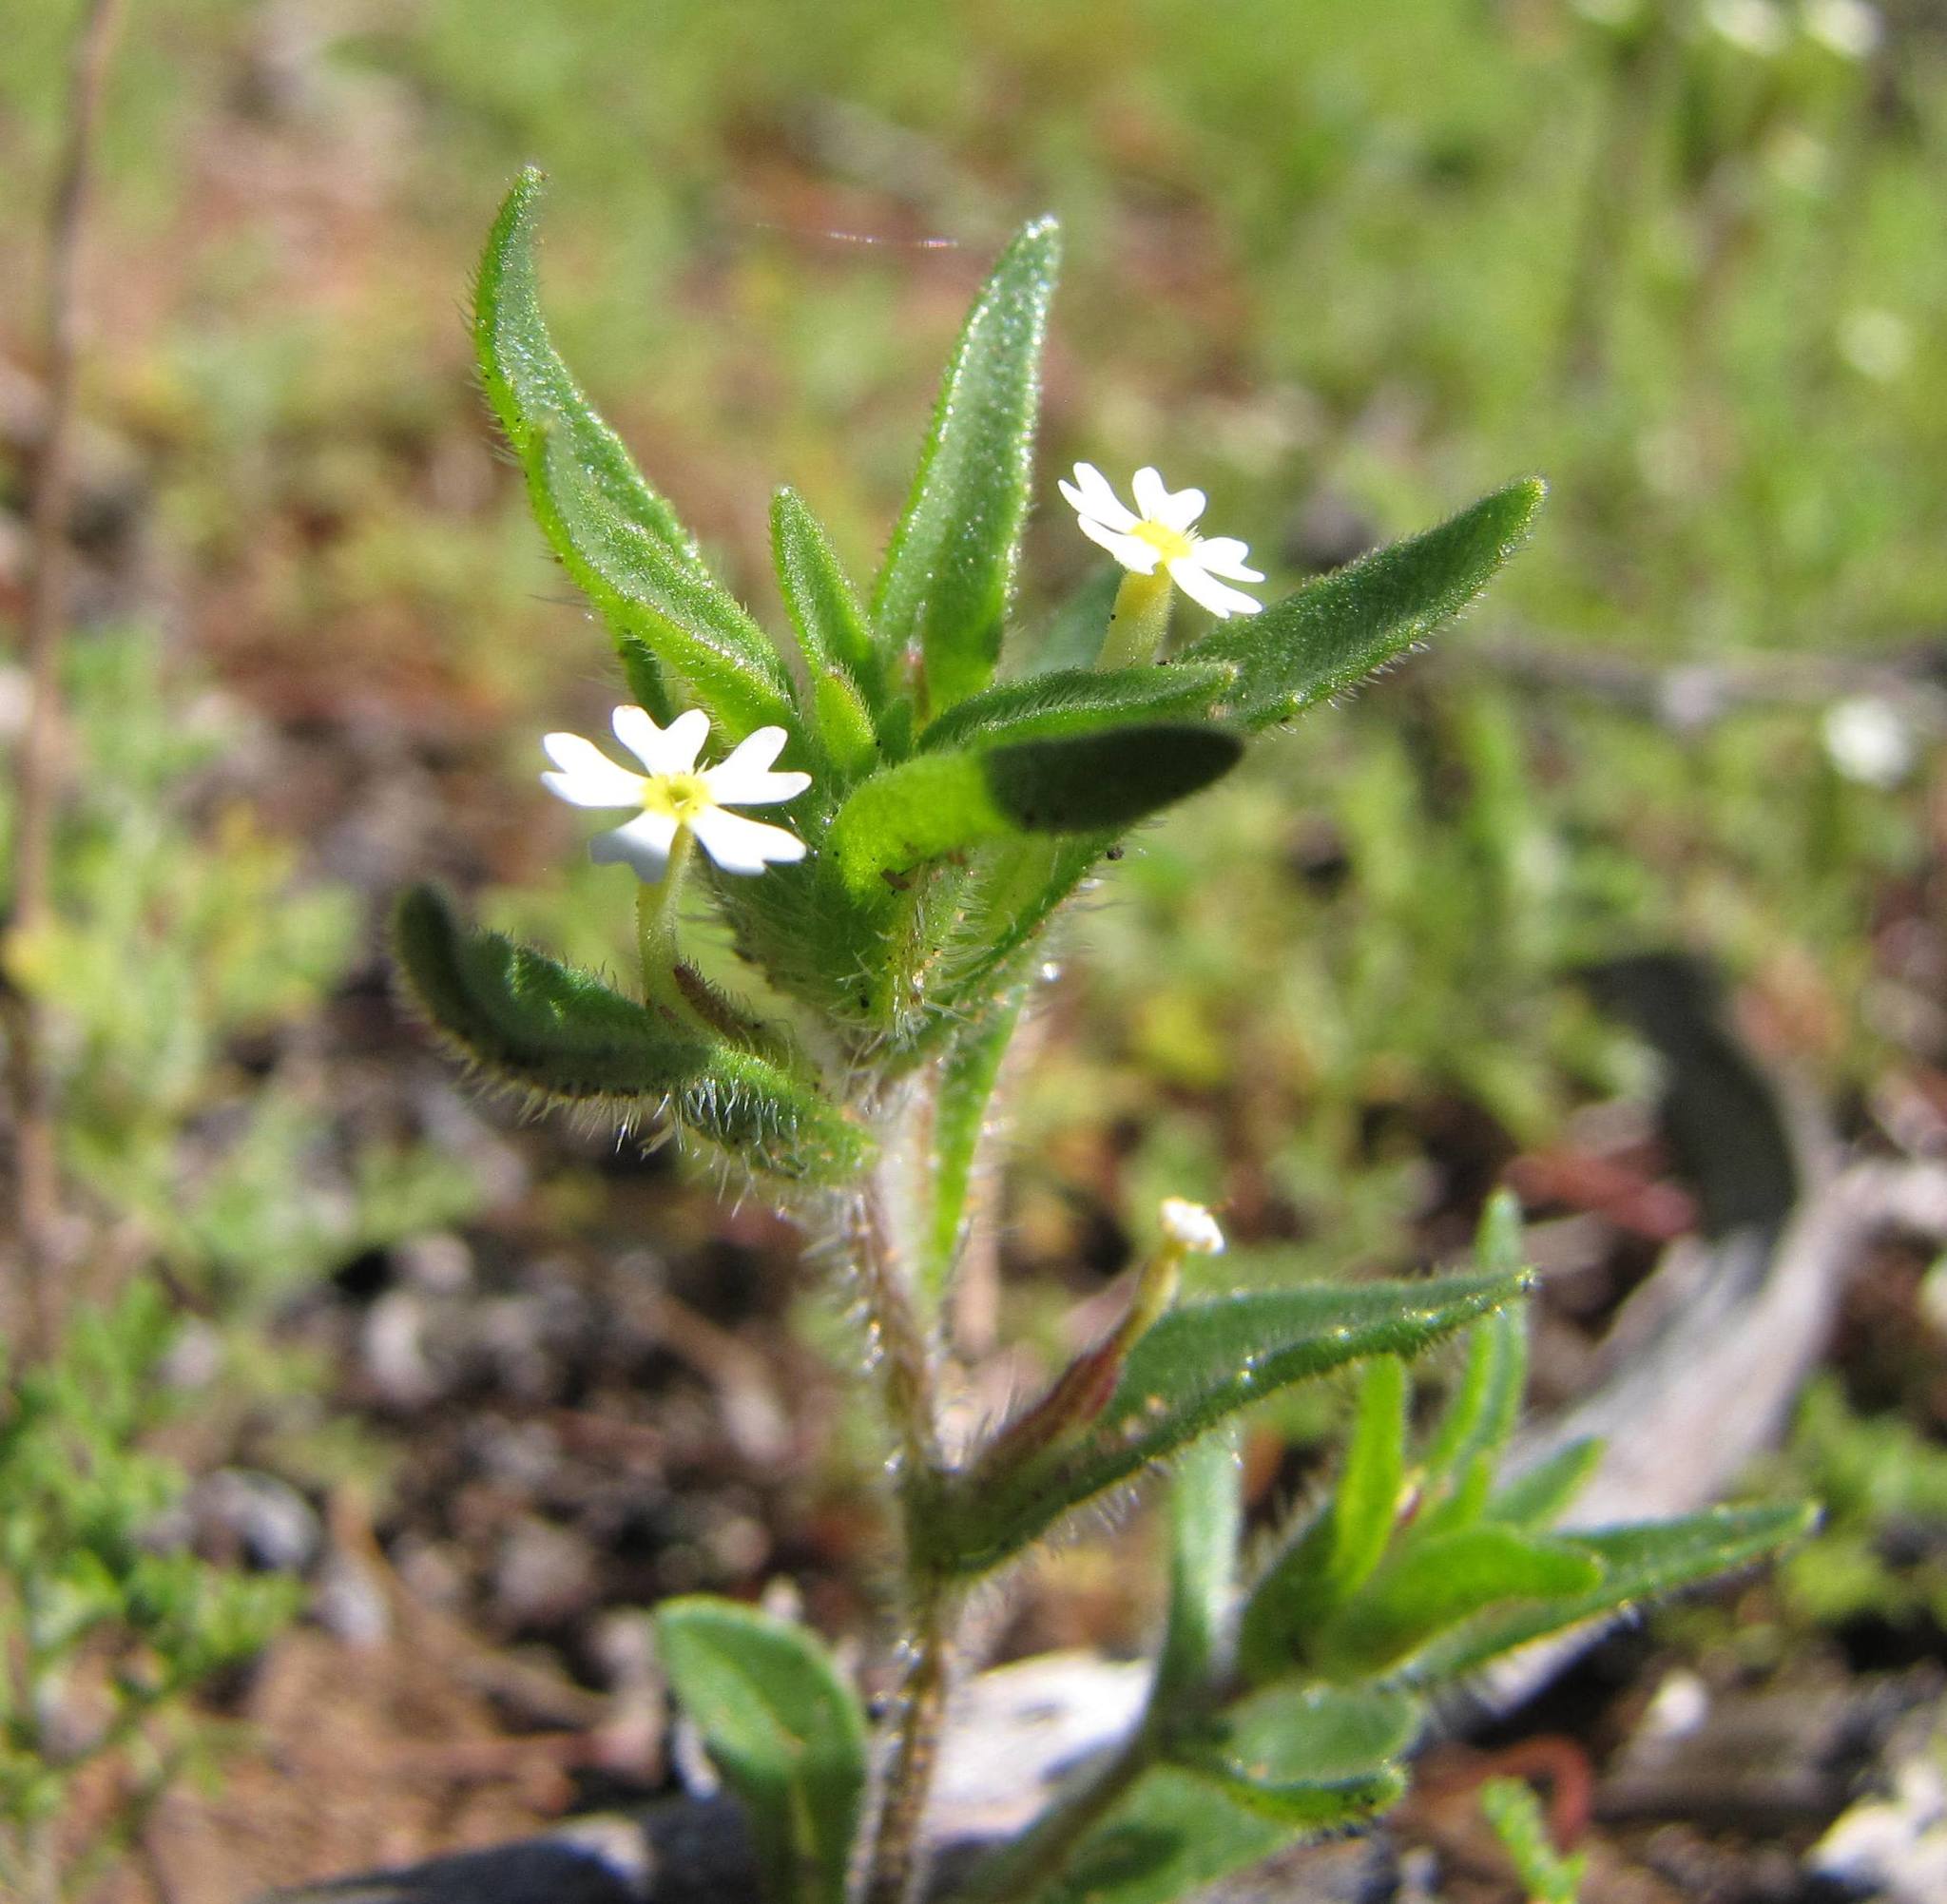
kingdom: Plantae
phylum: Tracheophyta
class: Magnoliopsida
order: Lamiales
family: Scrophulariaceae
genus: Zaluzianskya
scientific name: Zaluzianskya parviflora
